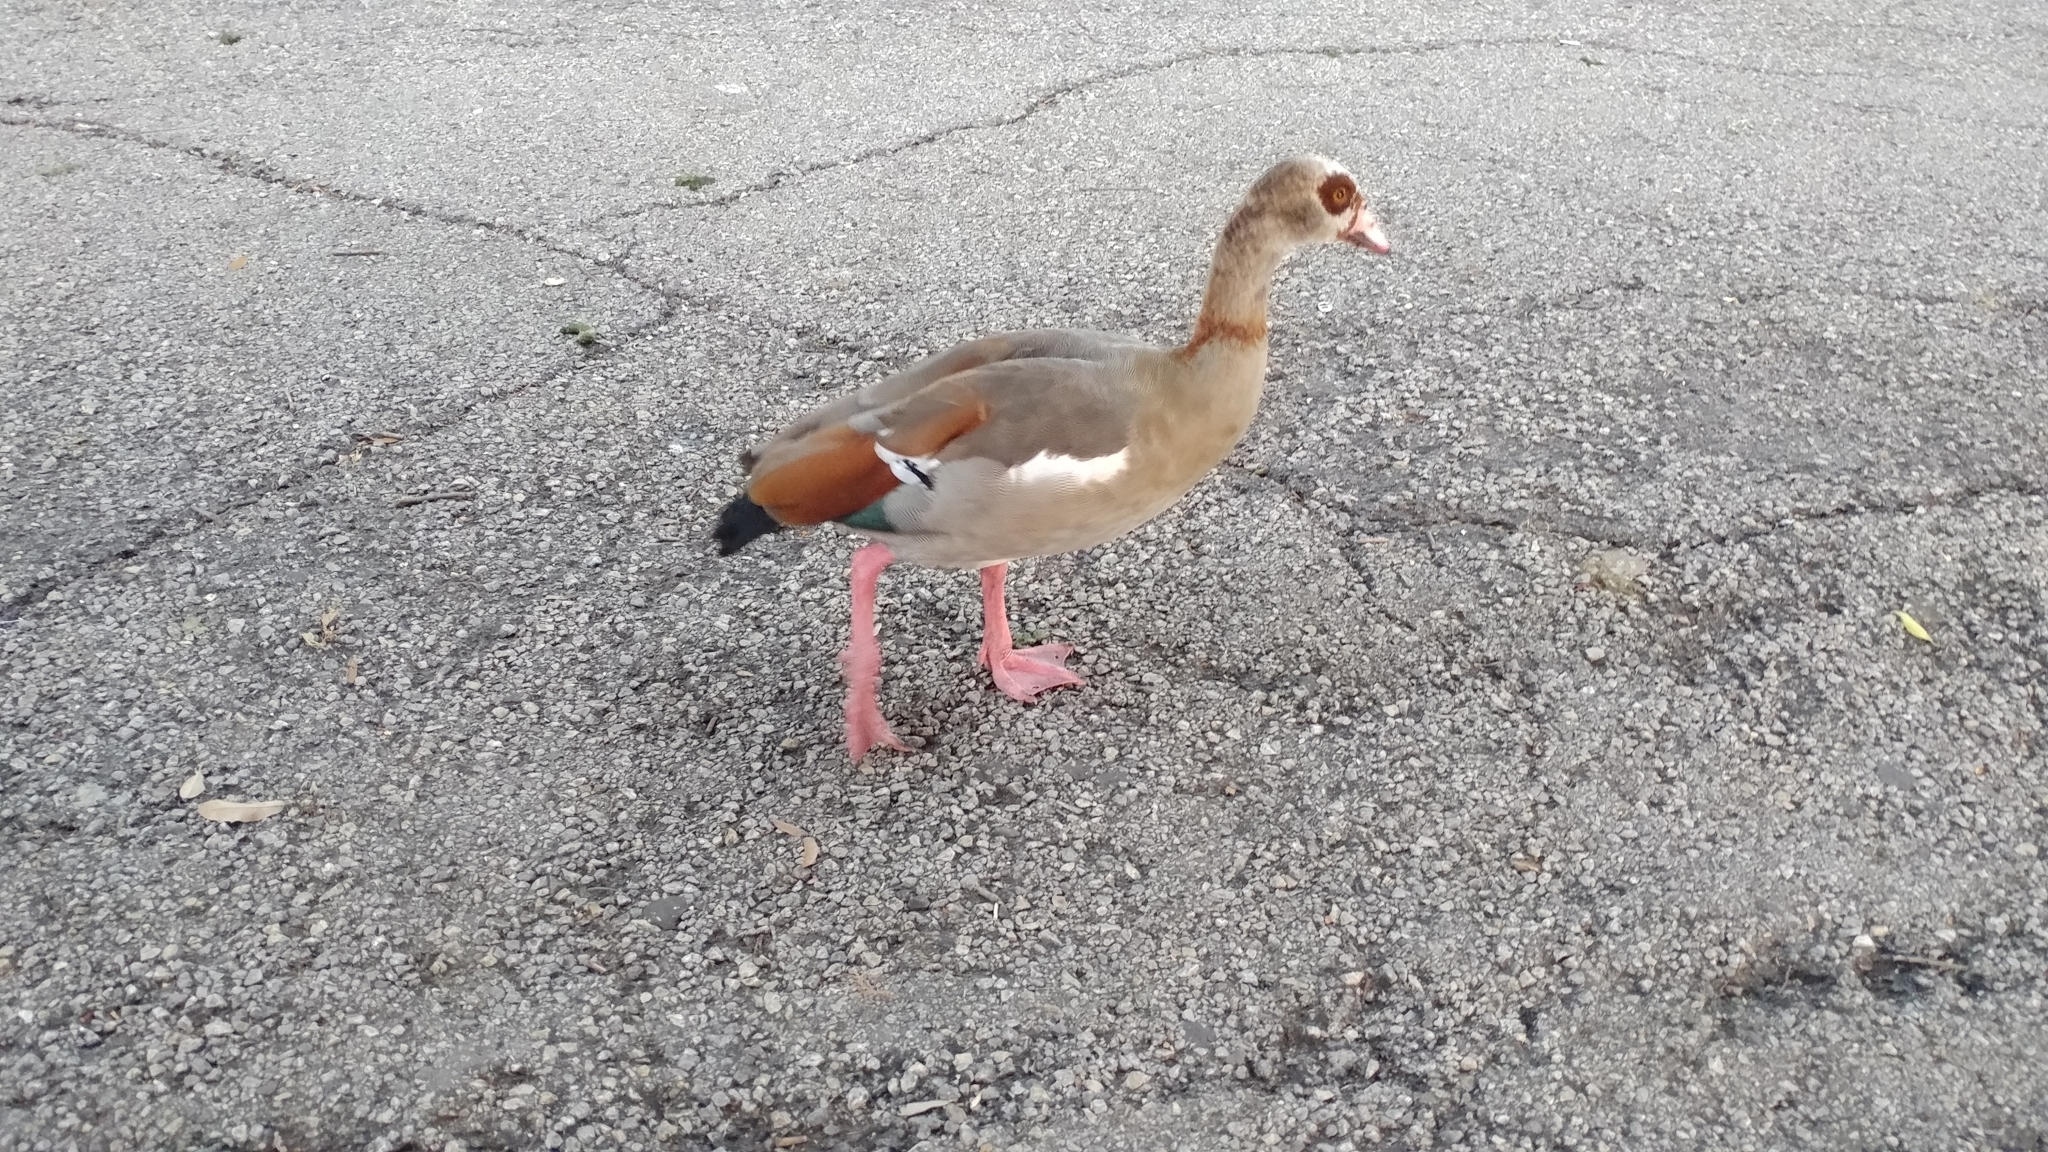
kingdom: Animalia
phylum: Chordata
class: Aves
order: Anseriformes
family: Anatidae
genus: Alopochen
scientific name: Alopochen aegyptiaca
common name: Egyptian goose
